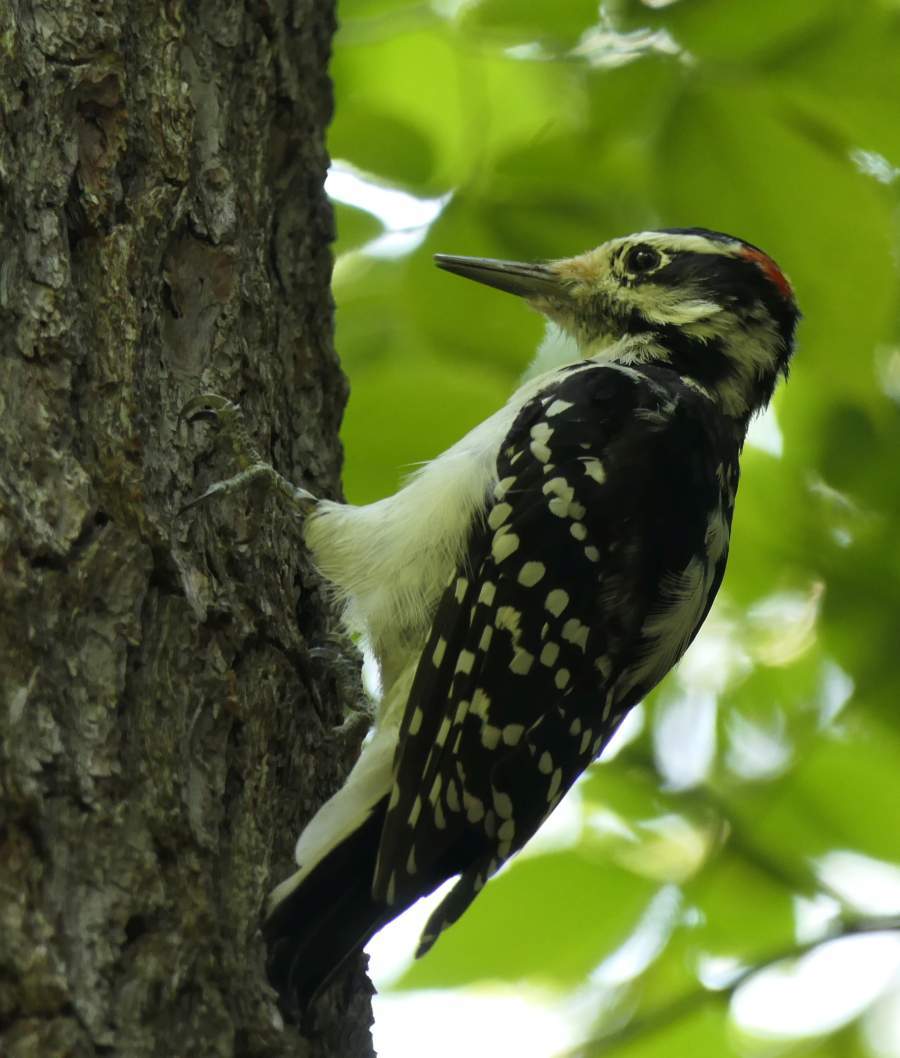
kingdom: Animalia
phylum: Chordata
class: Aves
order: Piciformes
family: Picidae
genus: Leuconotopicus
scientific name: Leuconotopicus villosus
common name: Hairy woodpecker
